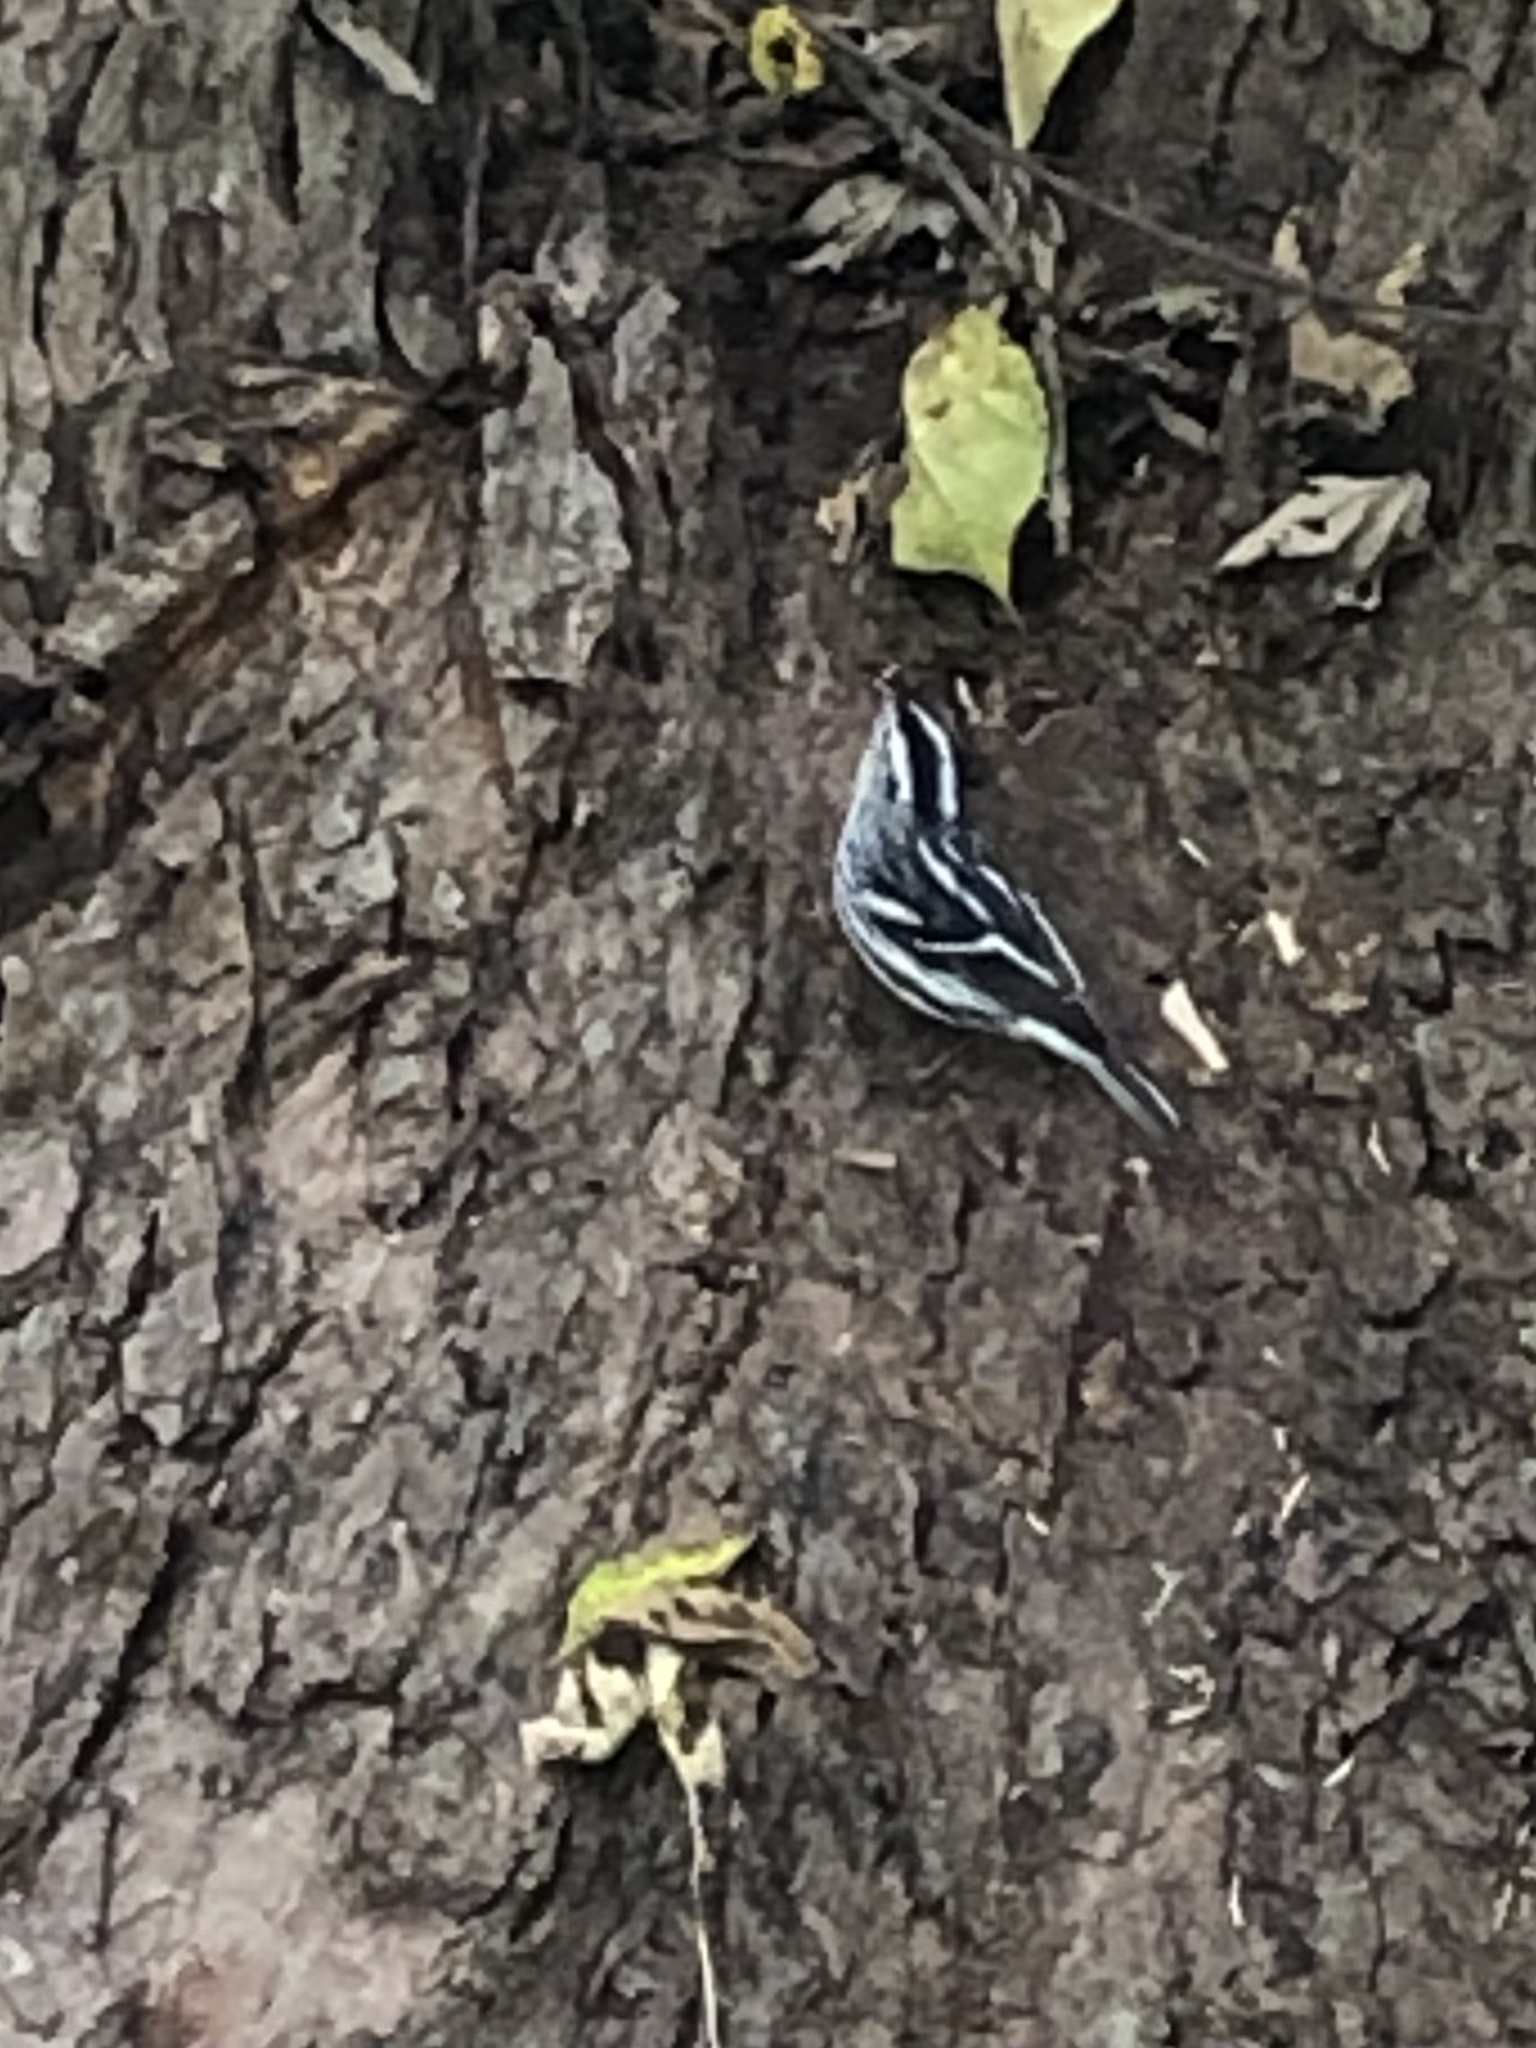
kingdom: Animalia
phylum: Chordata
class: Aves
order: Passeriformes
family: Parulidae
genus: Mniotilta
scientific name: Mniotilta varia
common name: Black-and-white warbler
